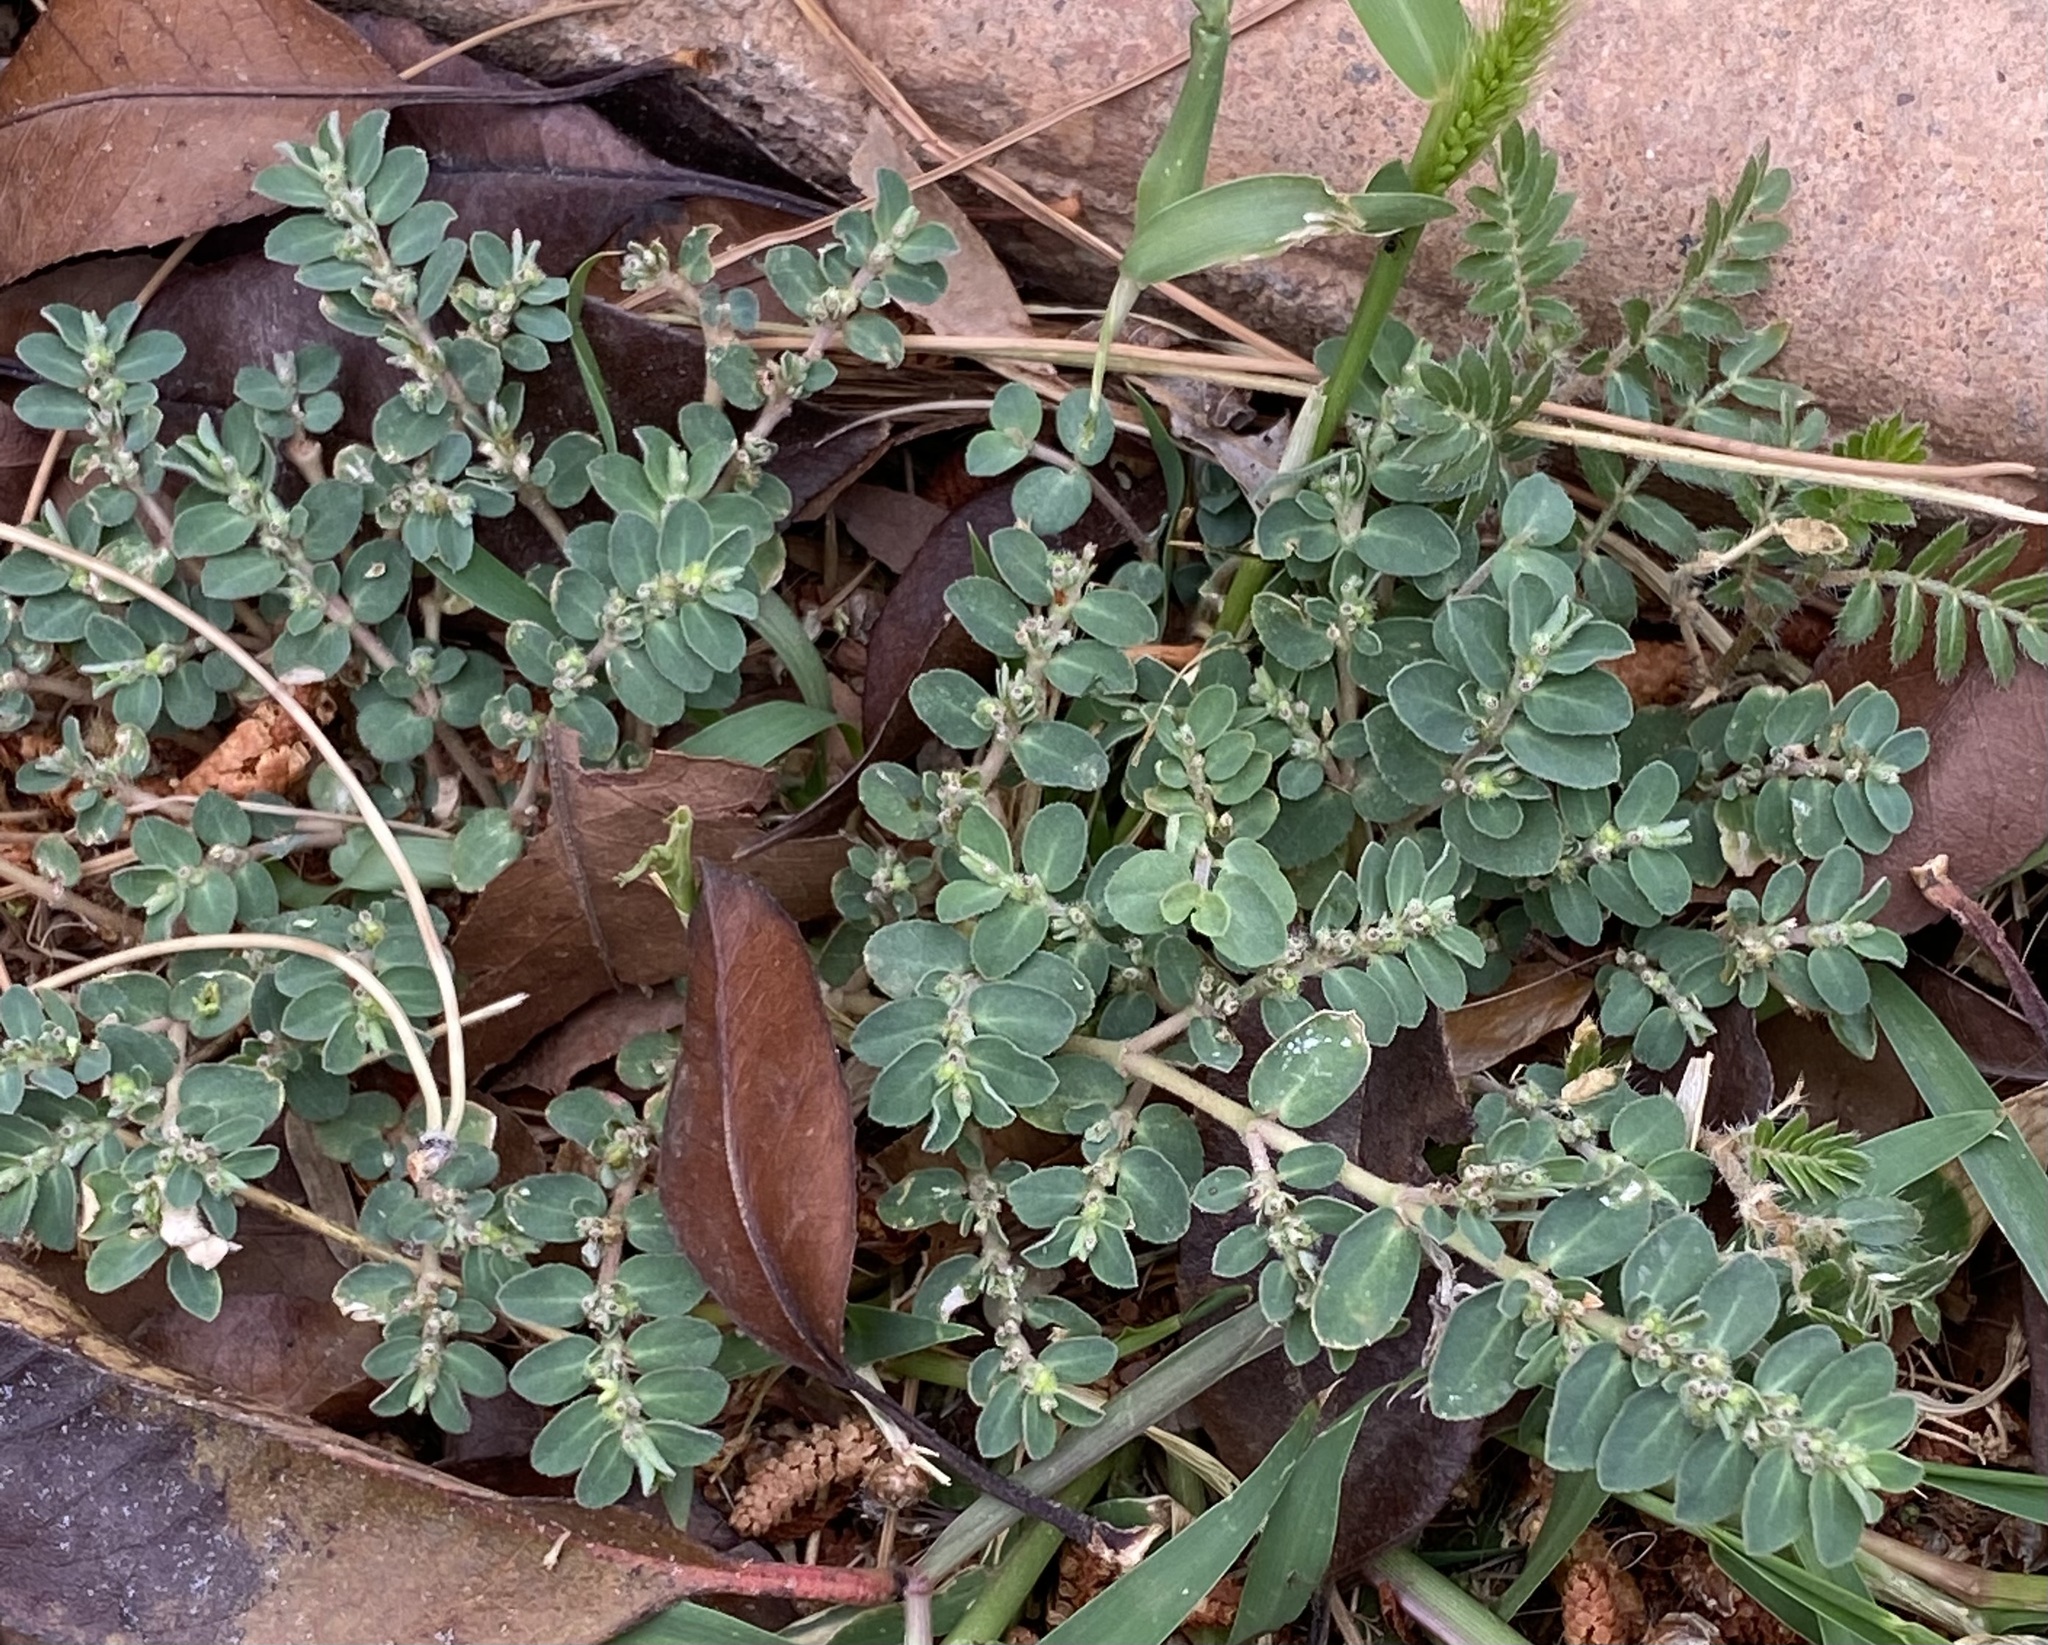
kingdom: Plantae
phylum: Tracheophyta
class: Magnoliopsida
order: Malpighiales
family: Euphorbiaceae
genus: Euphorbia
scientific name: Euphorbia prostrata
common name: Prostrate sandmat
